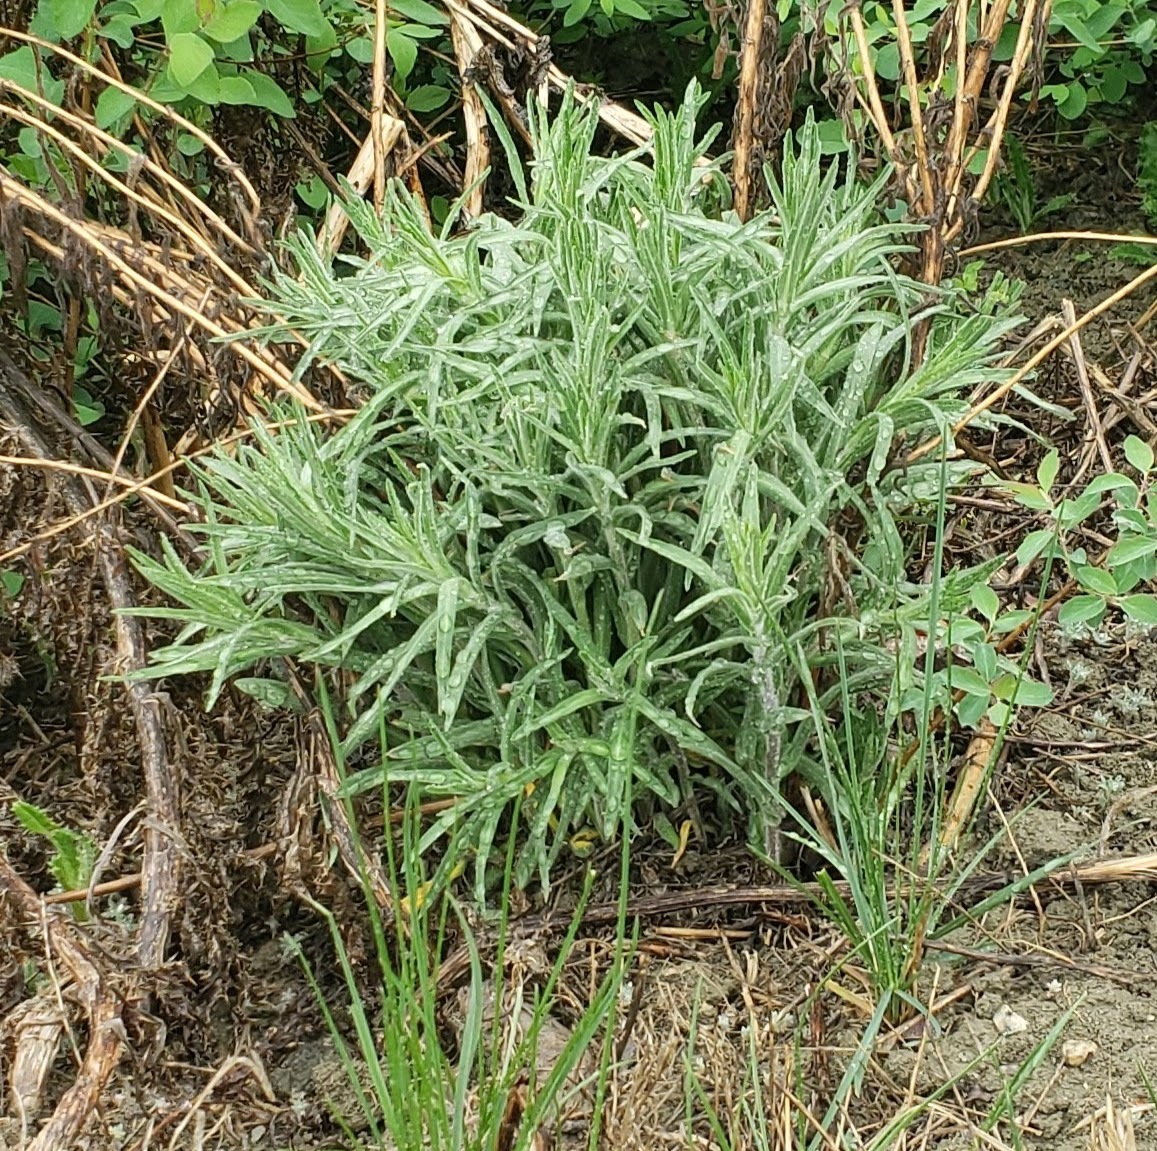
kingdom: Plantae
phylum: Tracheophyta
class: Magnoliopsida
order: Boraginales
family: Boraginaceae
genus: Lithospermum
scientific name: Lithospermum ruderale
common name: Western gromwell
